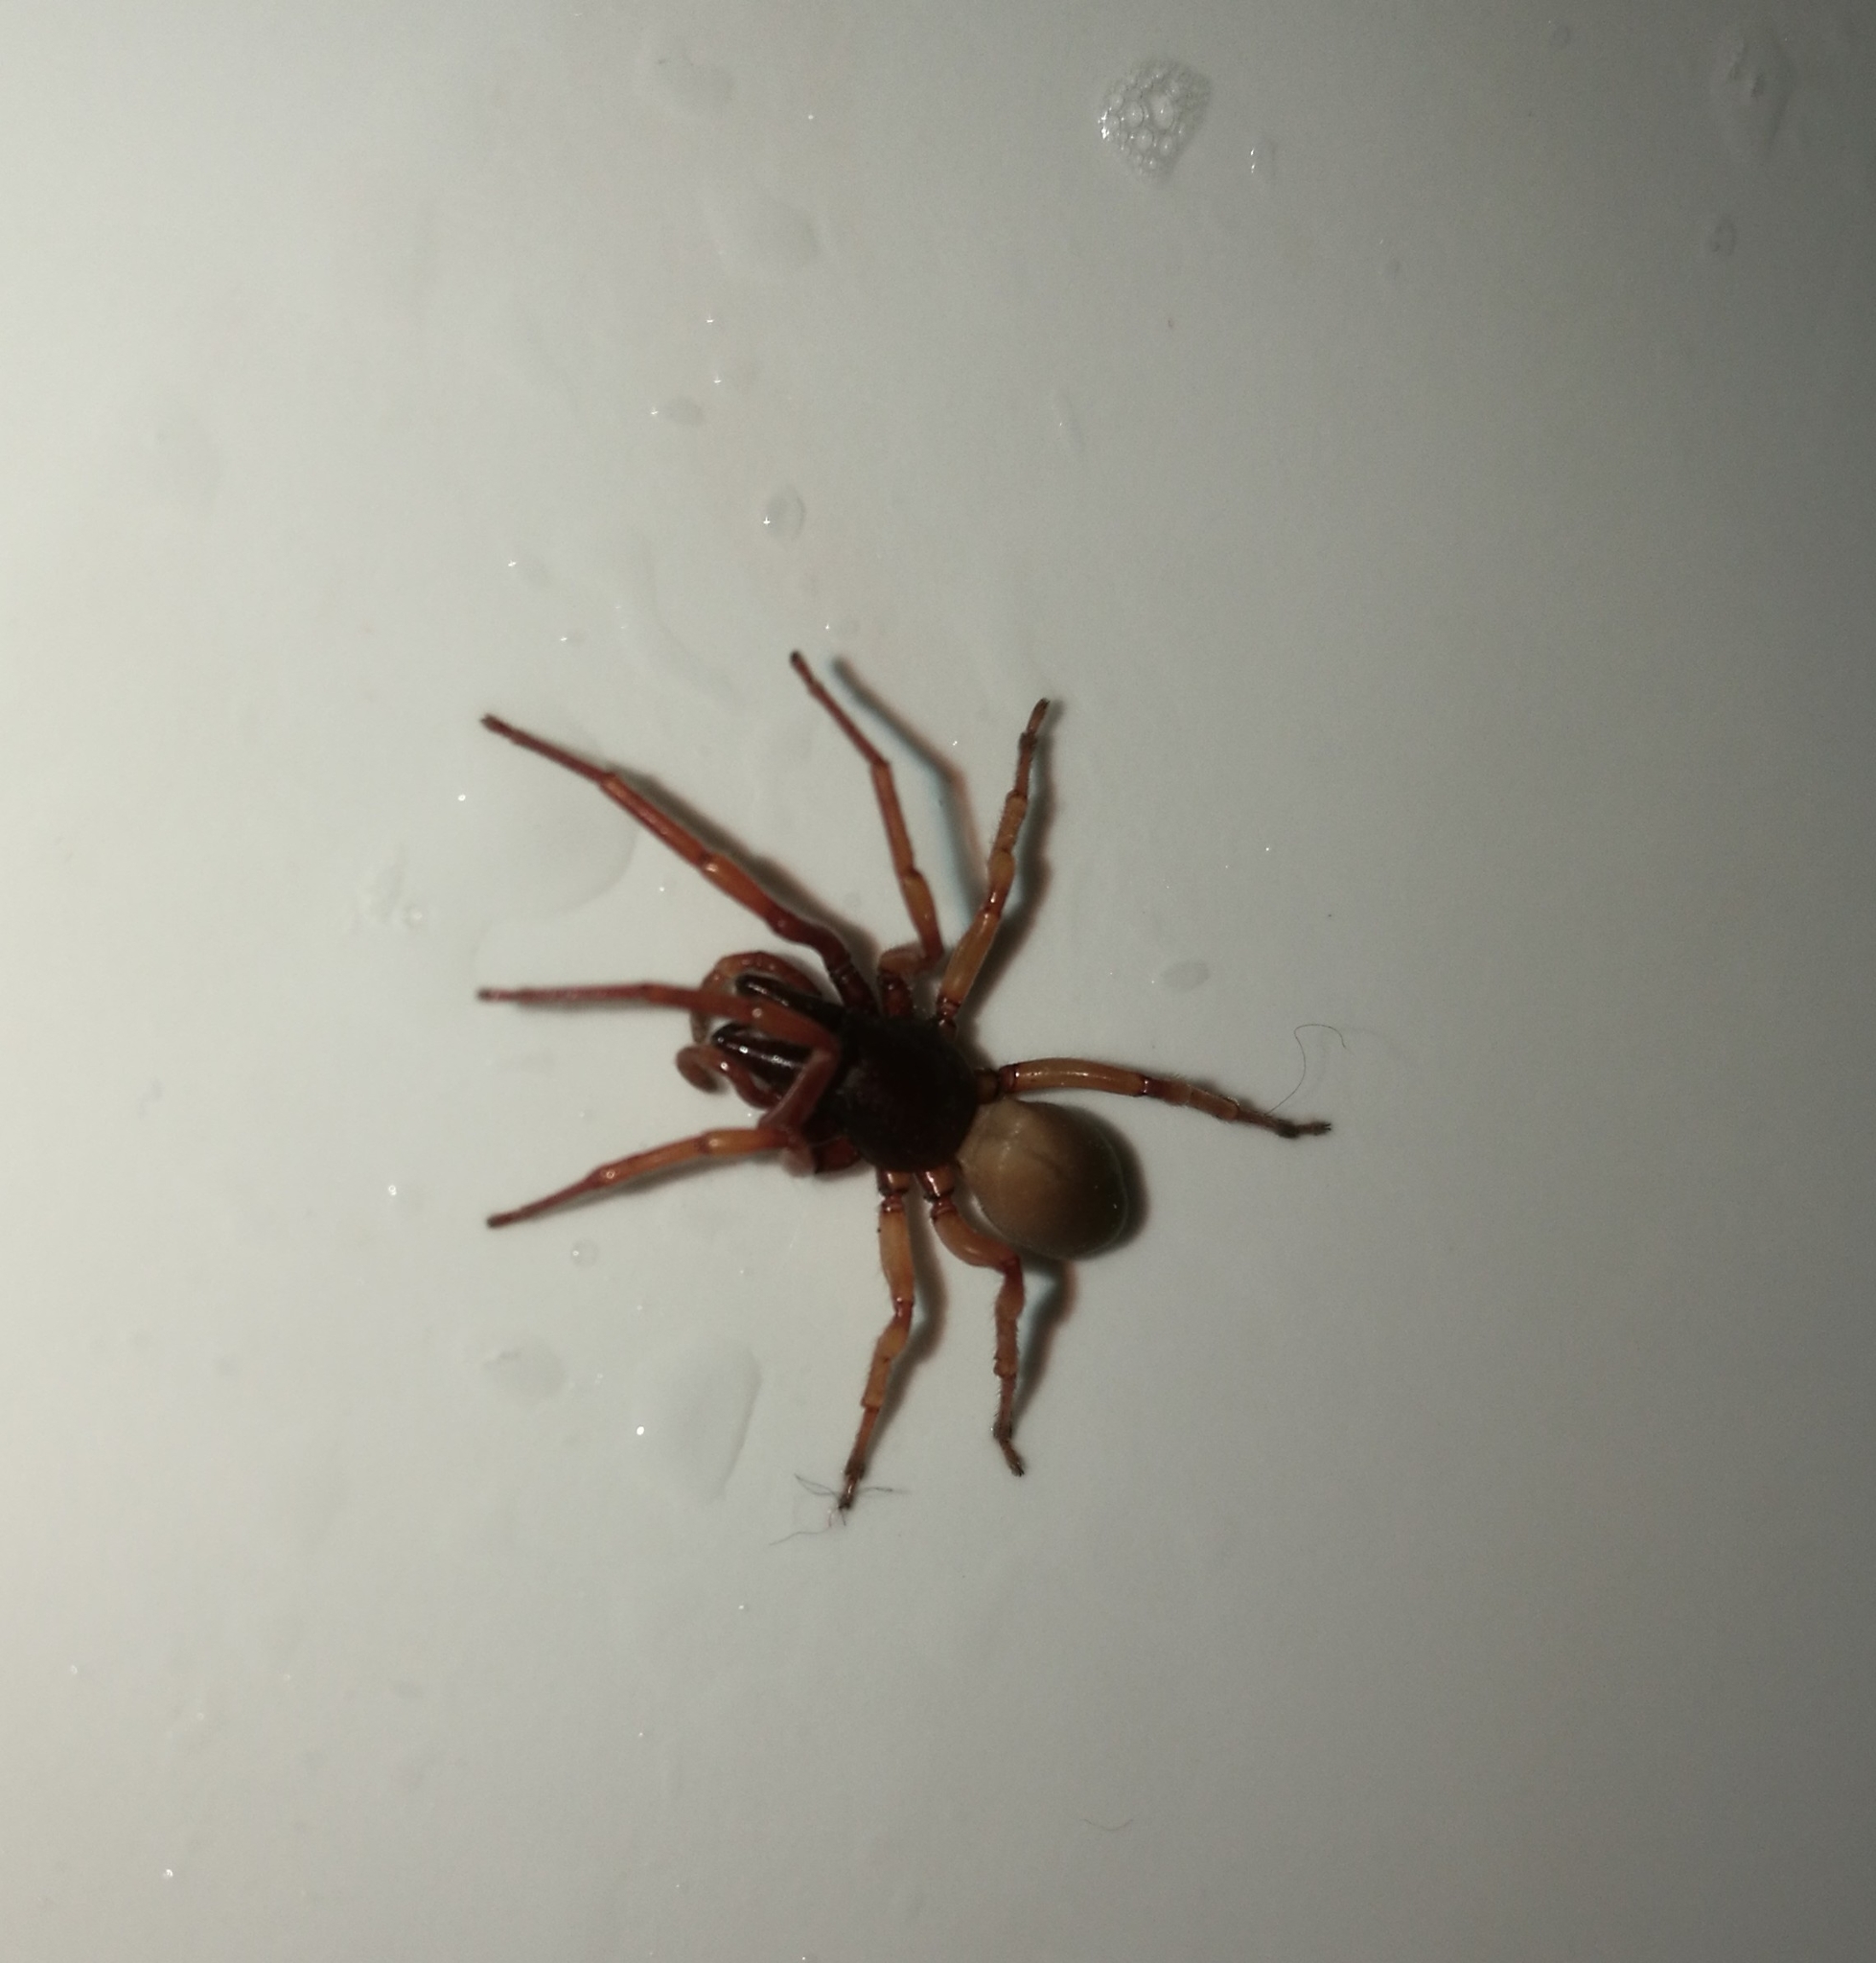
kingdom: Animalia
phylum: Arthropoda
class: Arachnida
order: Araneae
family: Dysderidae
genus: Dysdera
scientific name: Dysdera crocata
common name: Woodlouse spider
